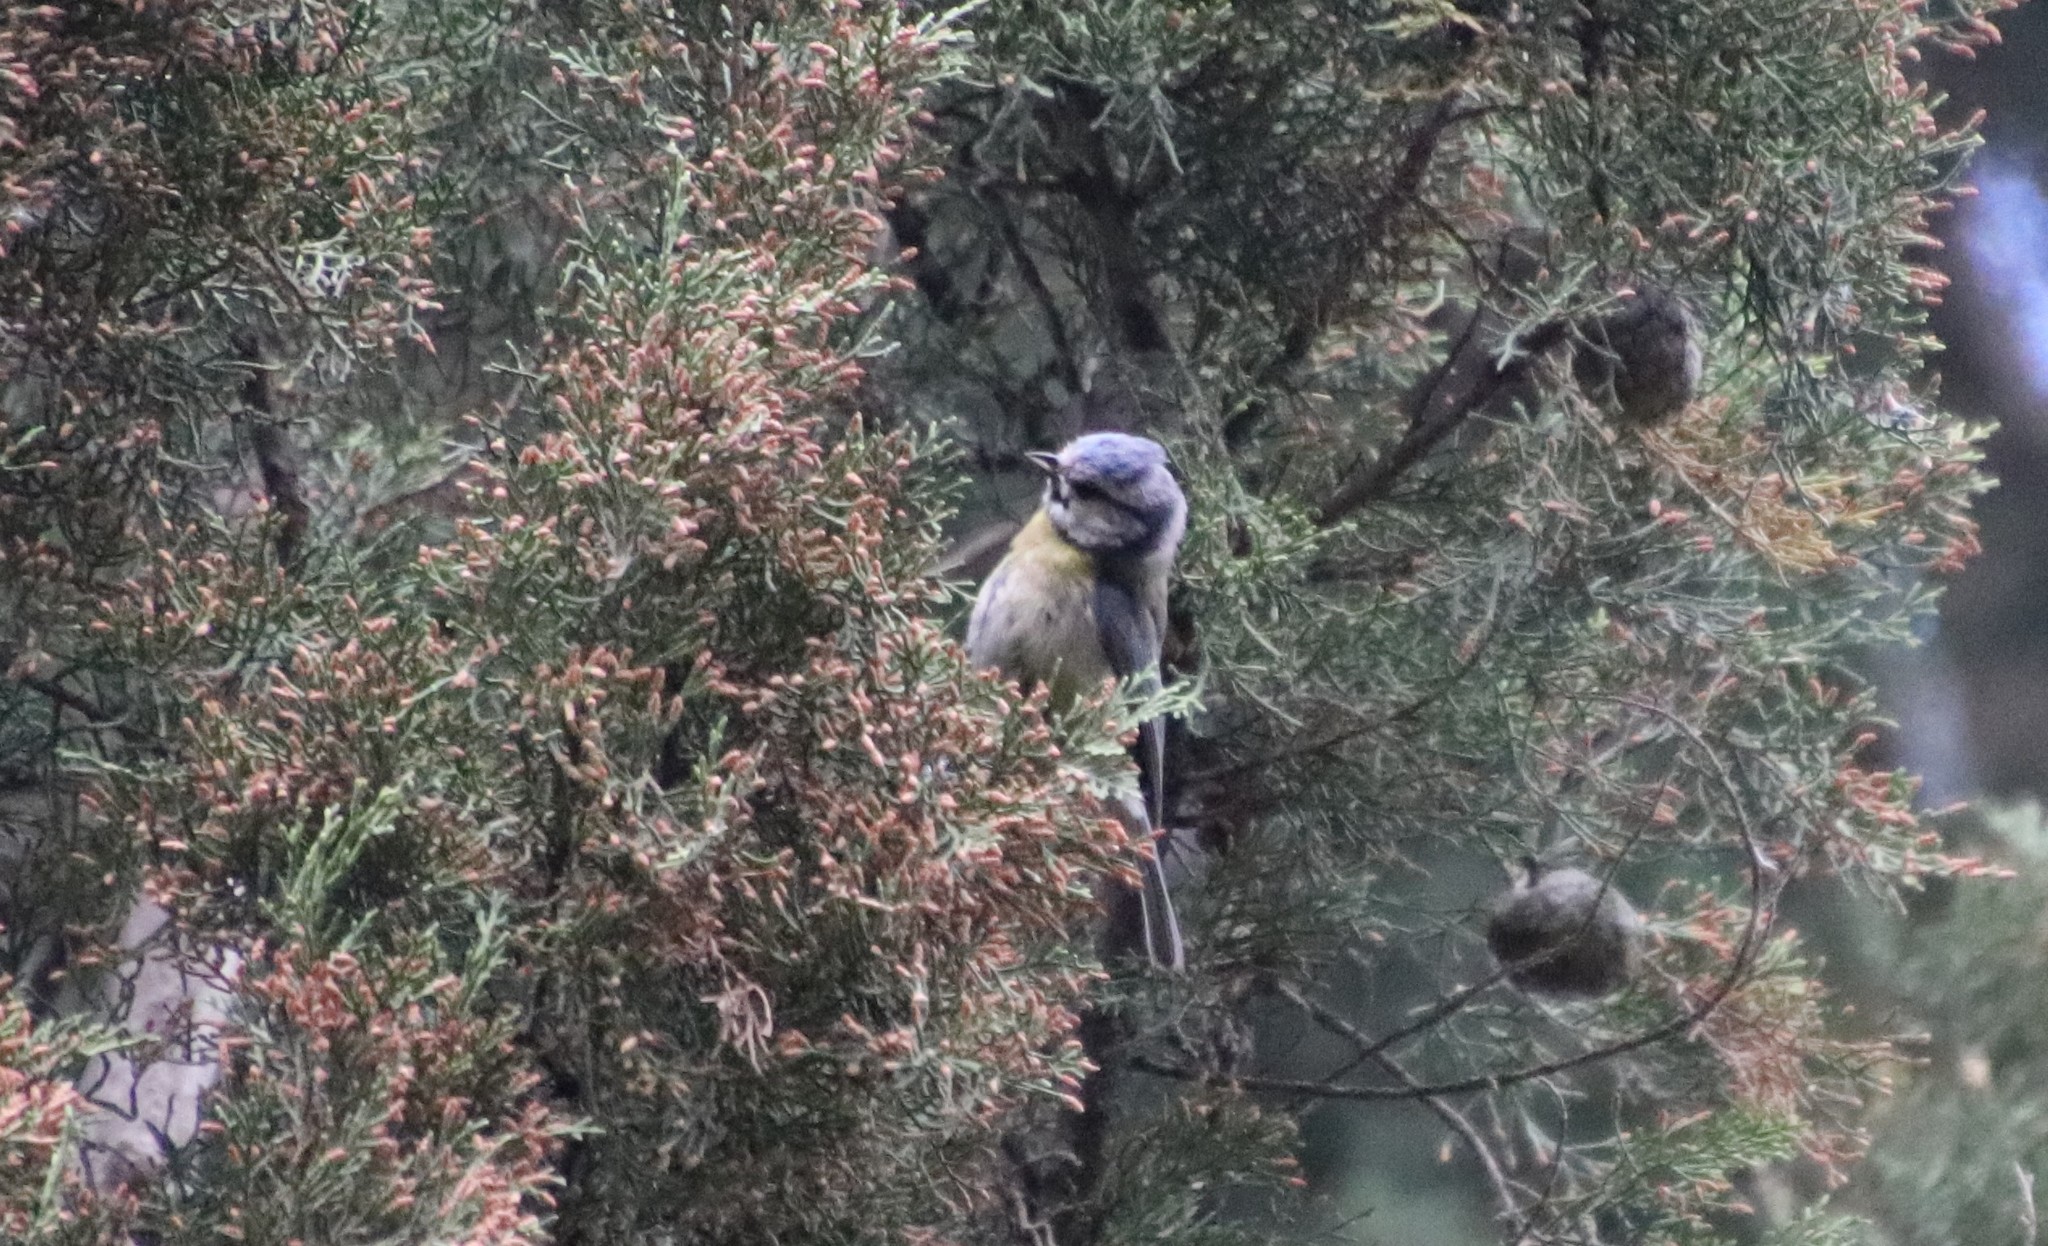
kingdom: Animalia
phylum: Chordata
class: Aves
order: Passeriformes
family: Paridae
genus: Cyanistes
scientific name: Cyanistes caeruleus
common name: Eurasian blue tit
